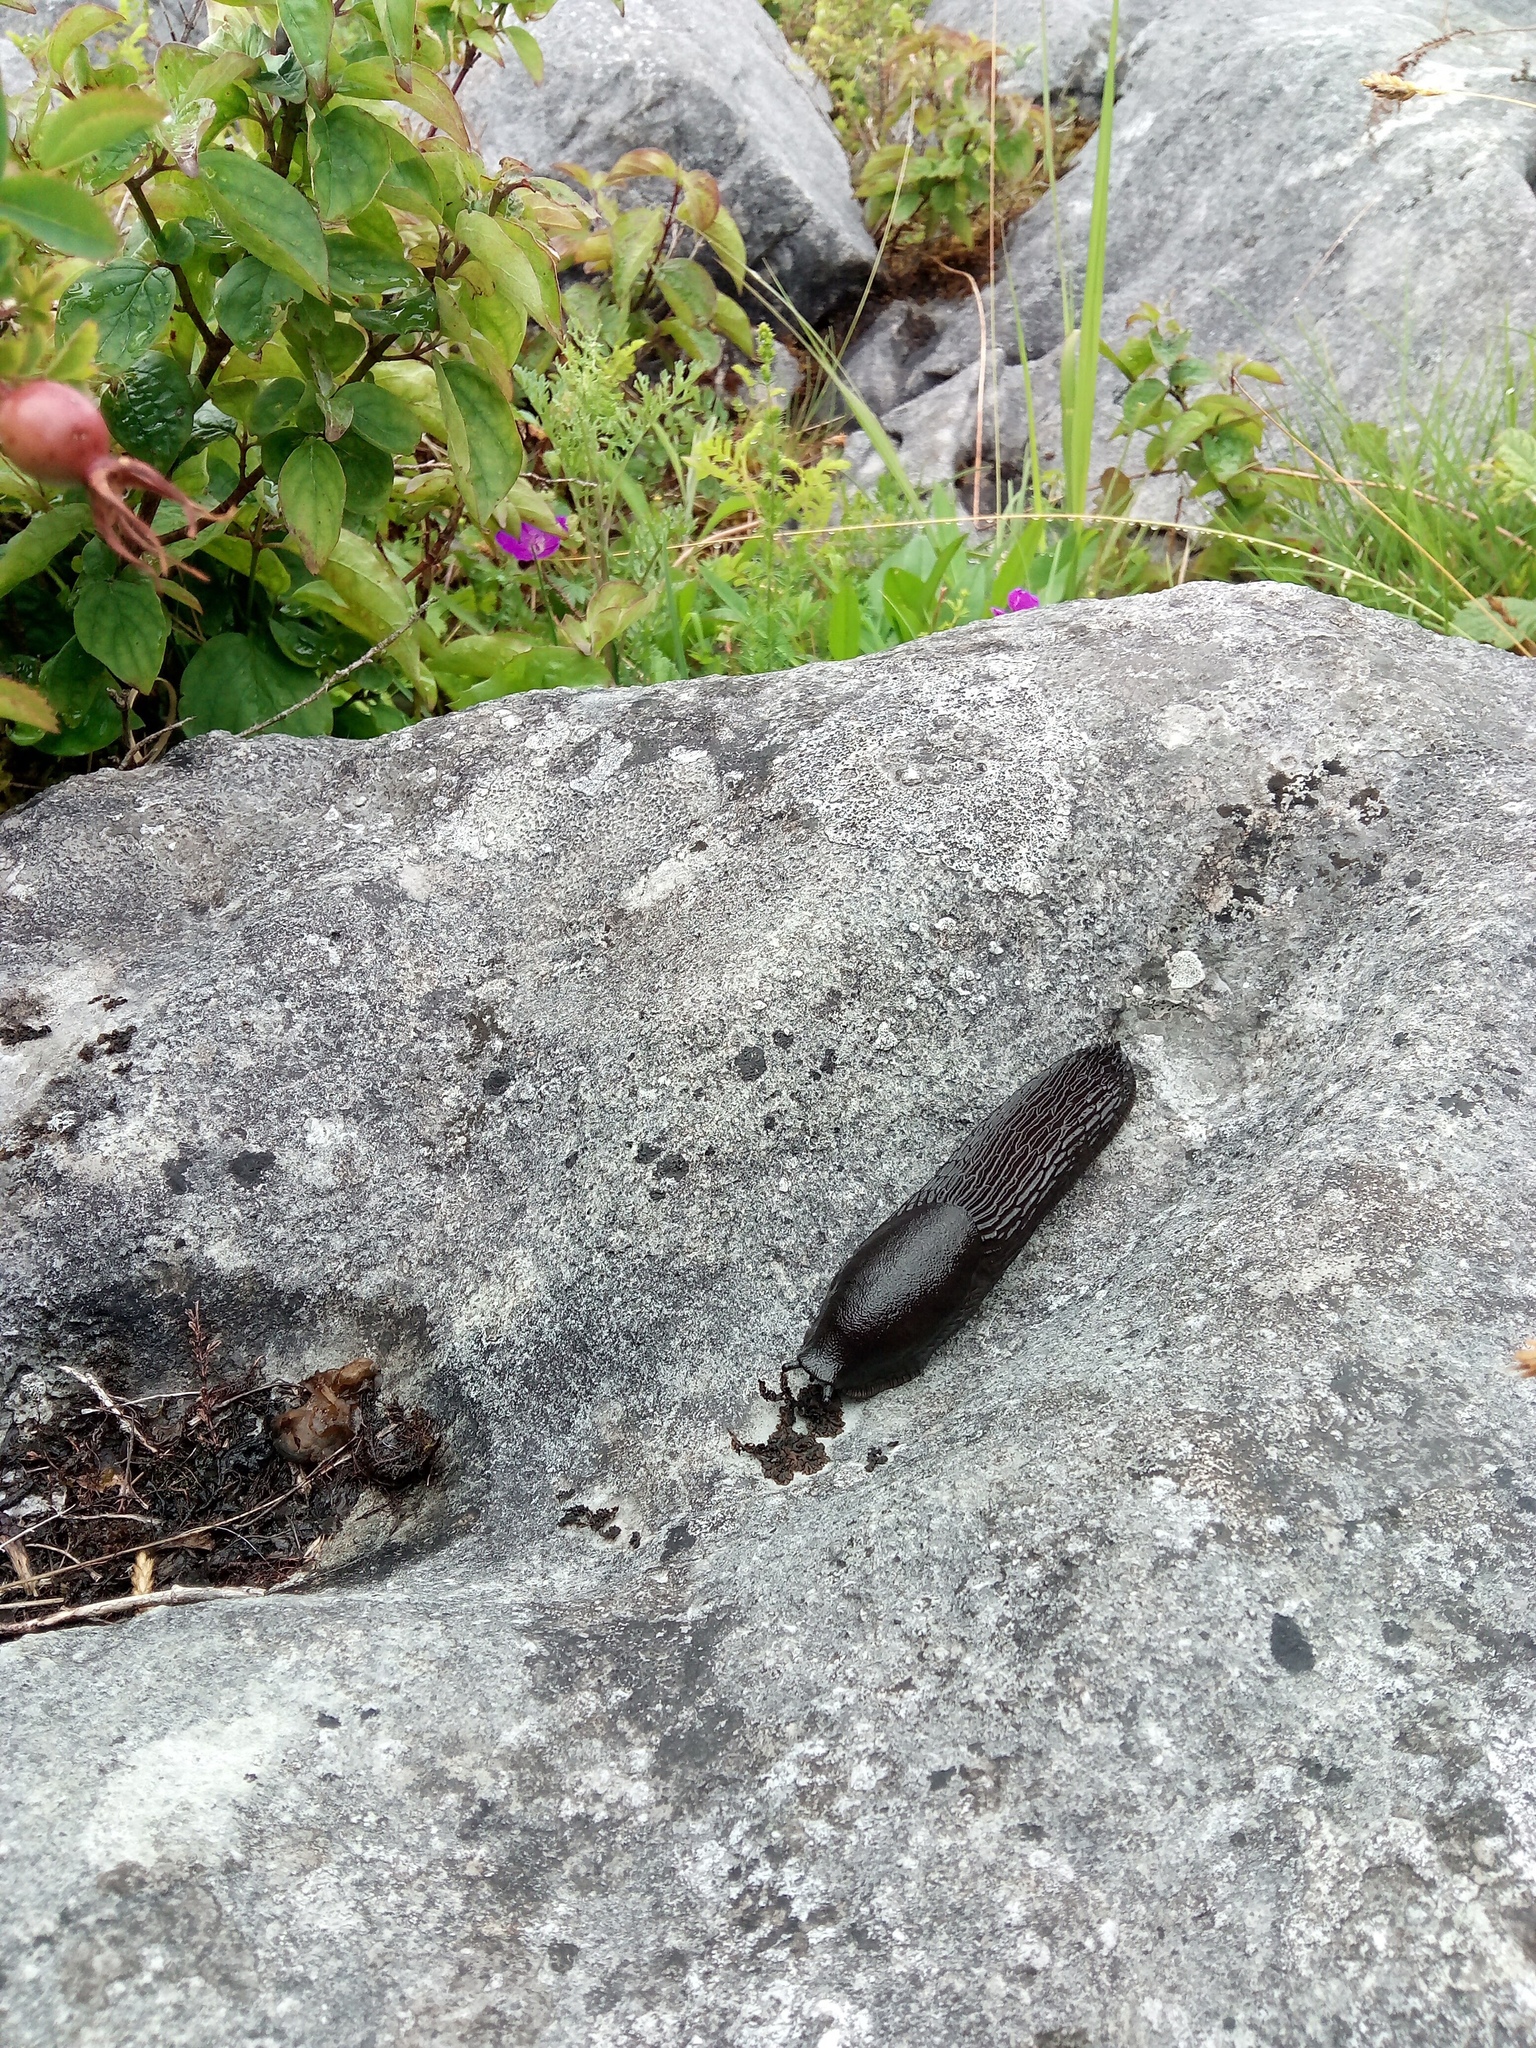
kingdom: Animalia
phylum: Mollusca
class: Gastropoda
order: Stylommatophora
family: Arionidae
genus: Arion
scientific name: Arion
